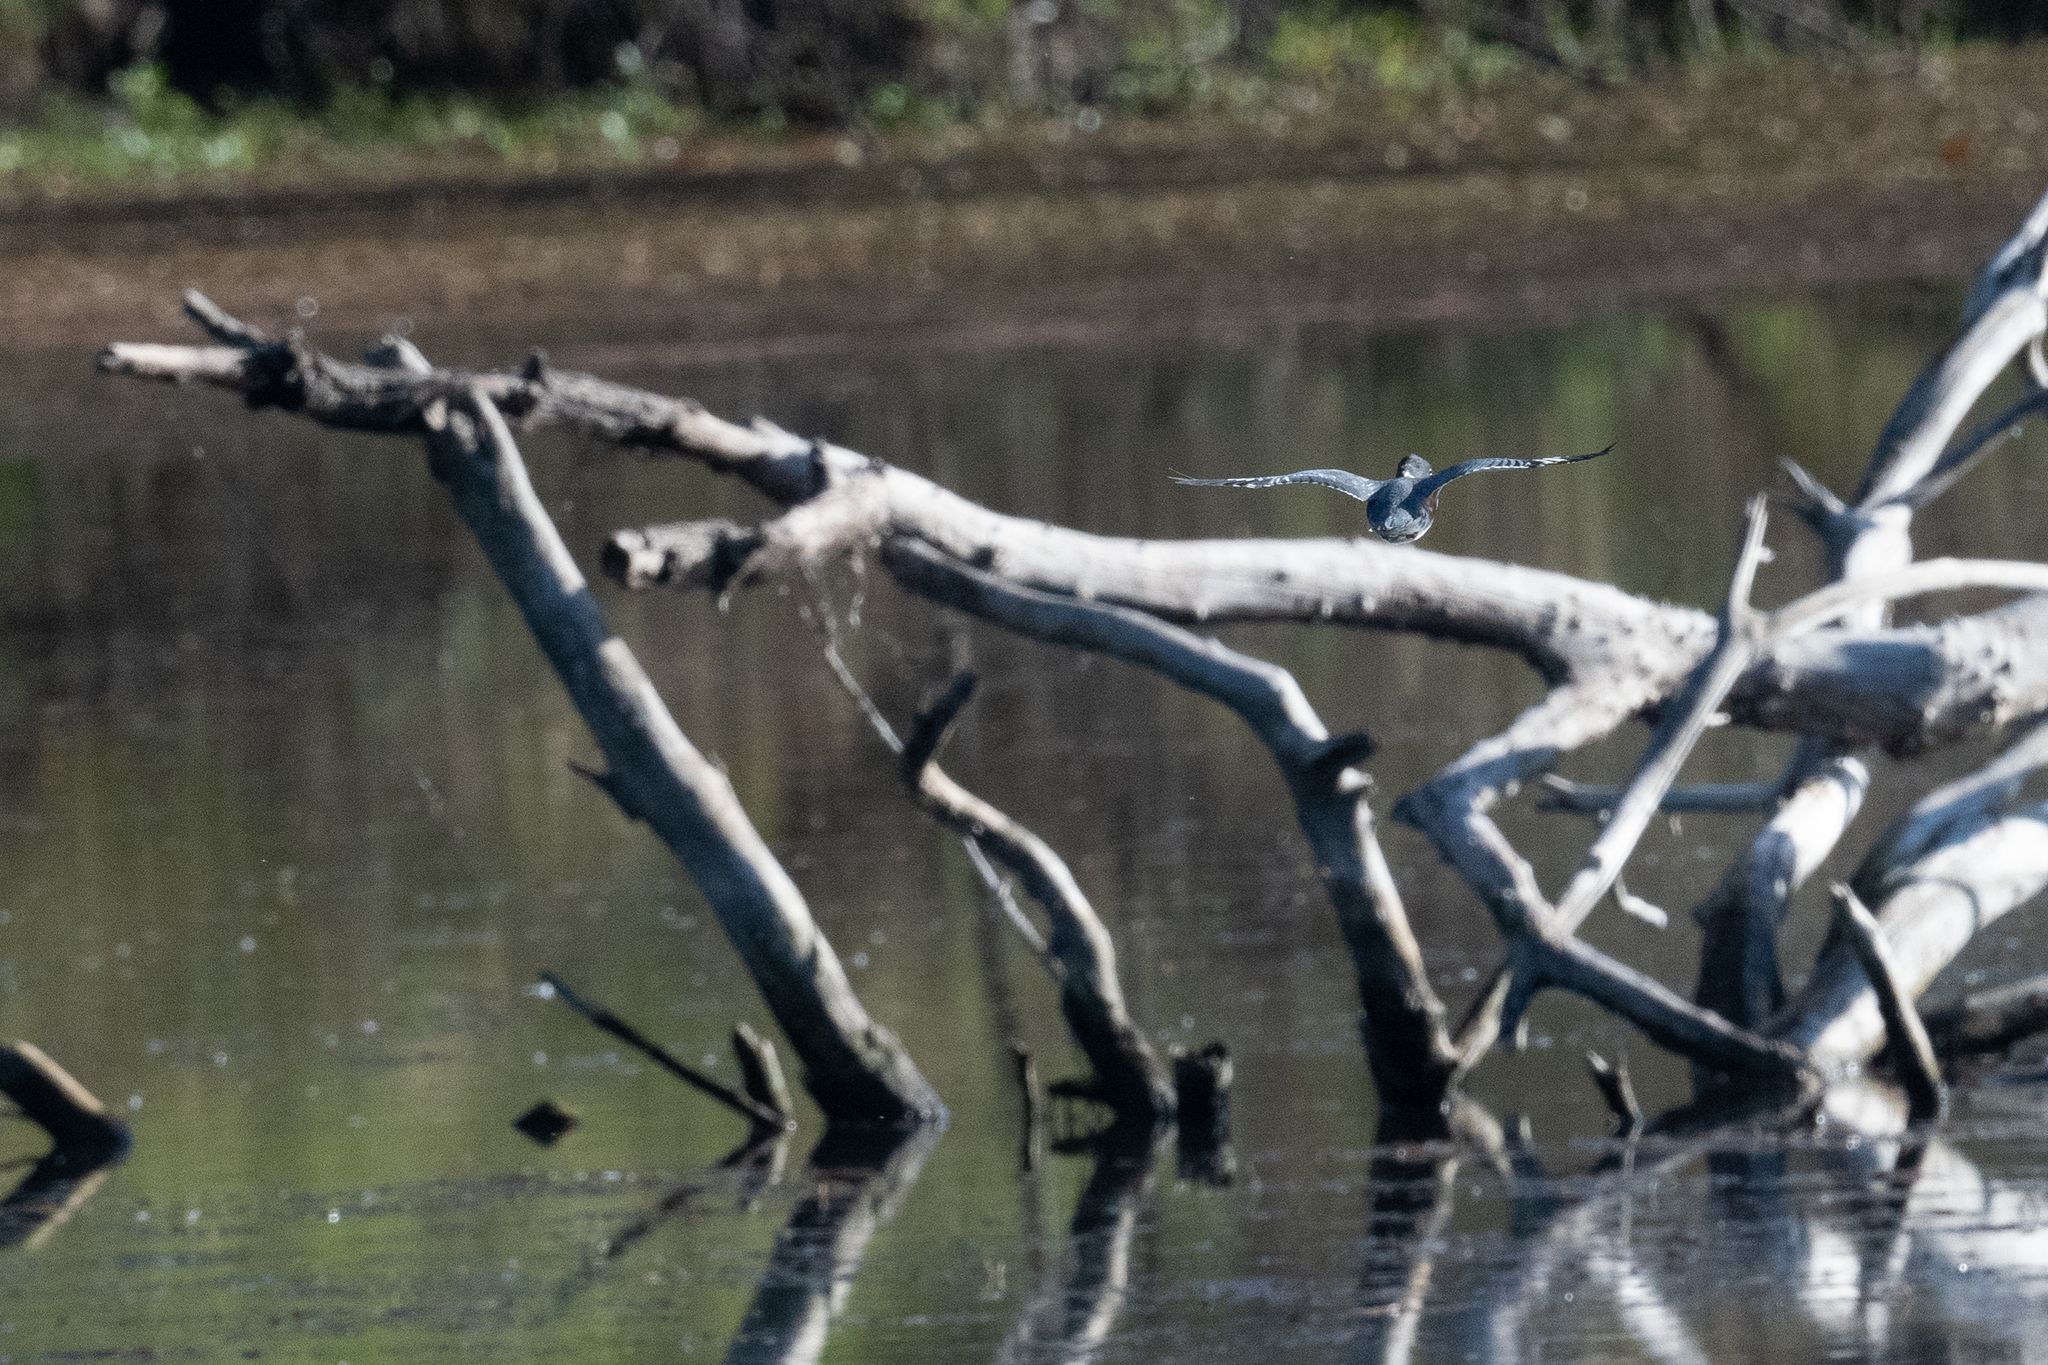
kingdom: Animalia
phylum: Chordata
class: Aves
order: Coraciiformes
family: Alcedinidae
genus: Megaceryle
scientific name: Megaceryle alcyon
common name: Belted kingfisher
